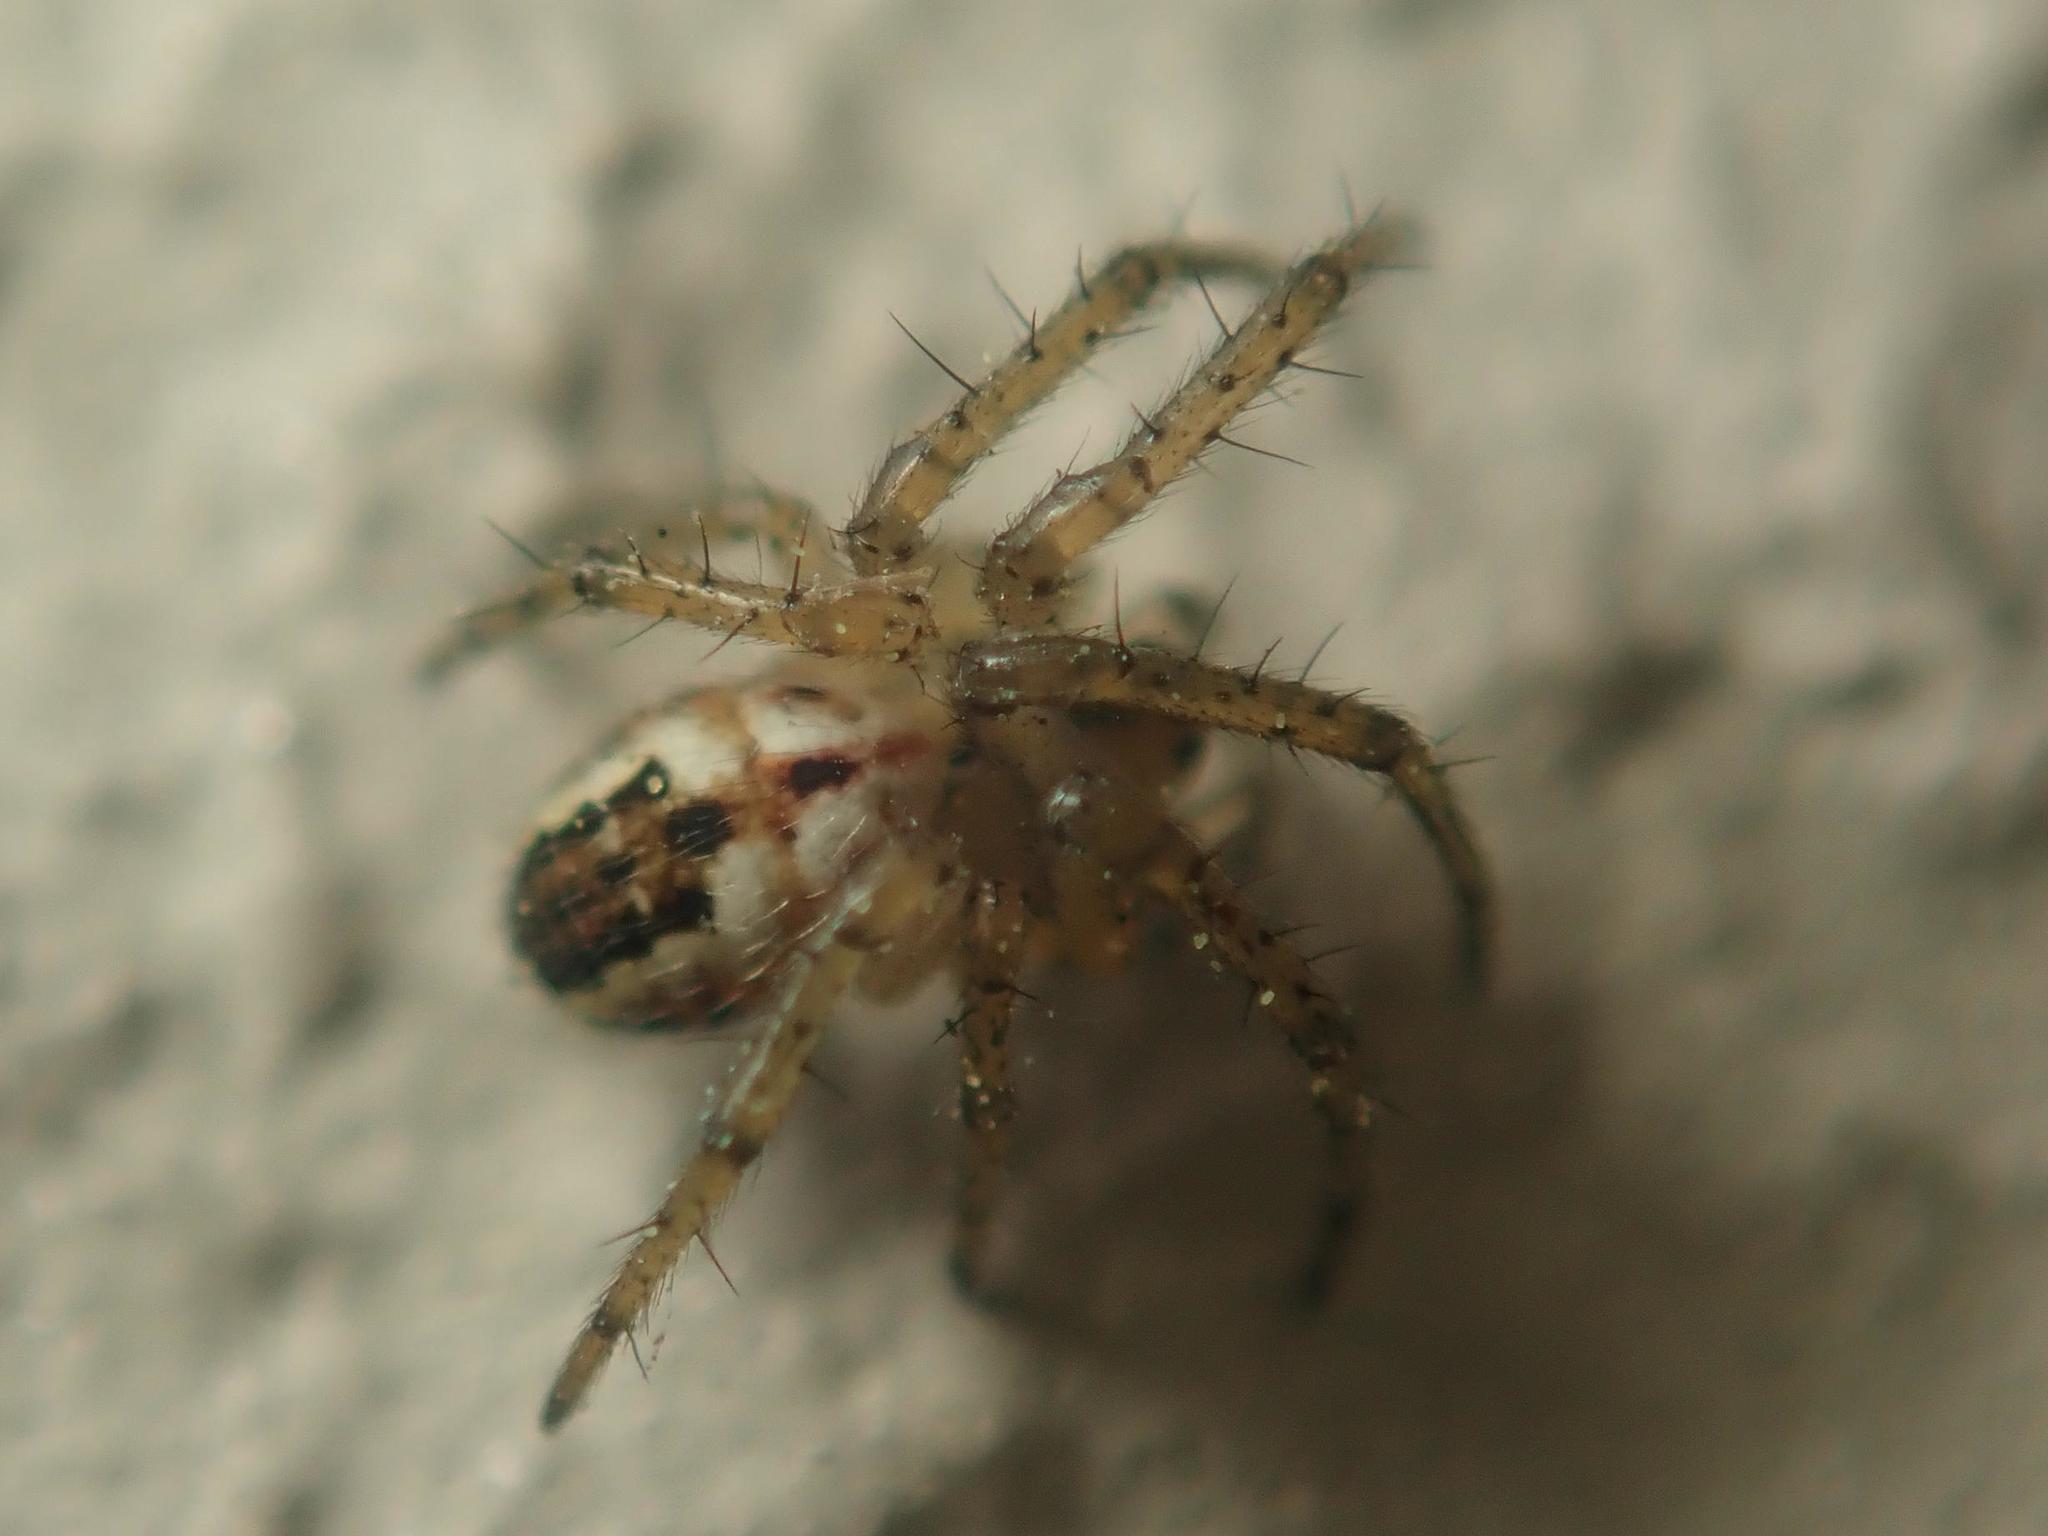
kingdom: Animalia
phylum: Arthropoda
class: Arachnida
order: Araneae
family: Araneidae
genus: Mangora
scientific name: Mangora acalypha
